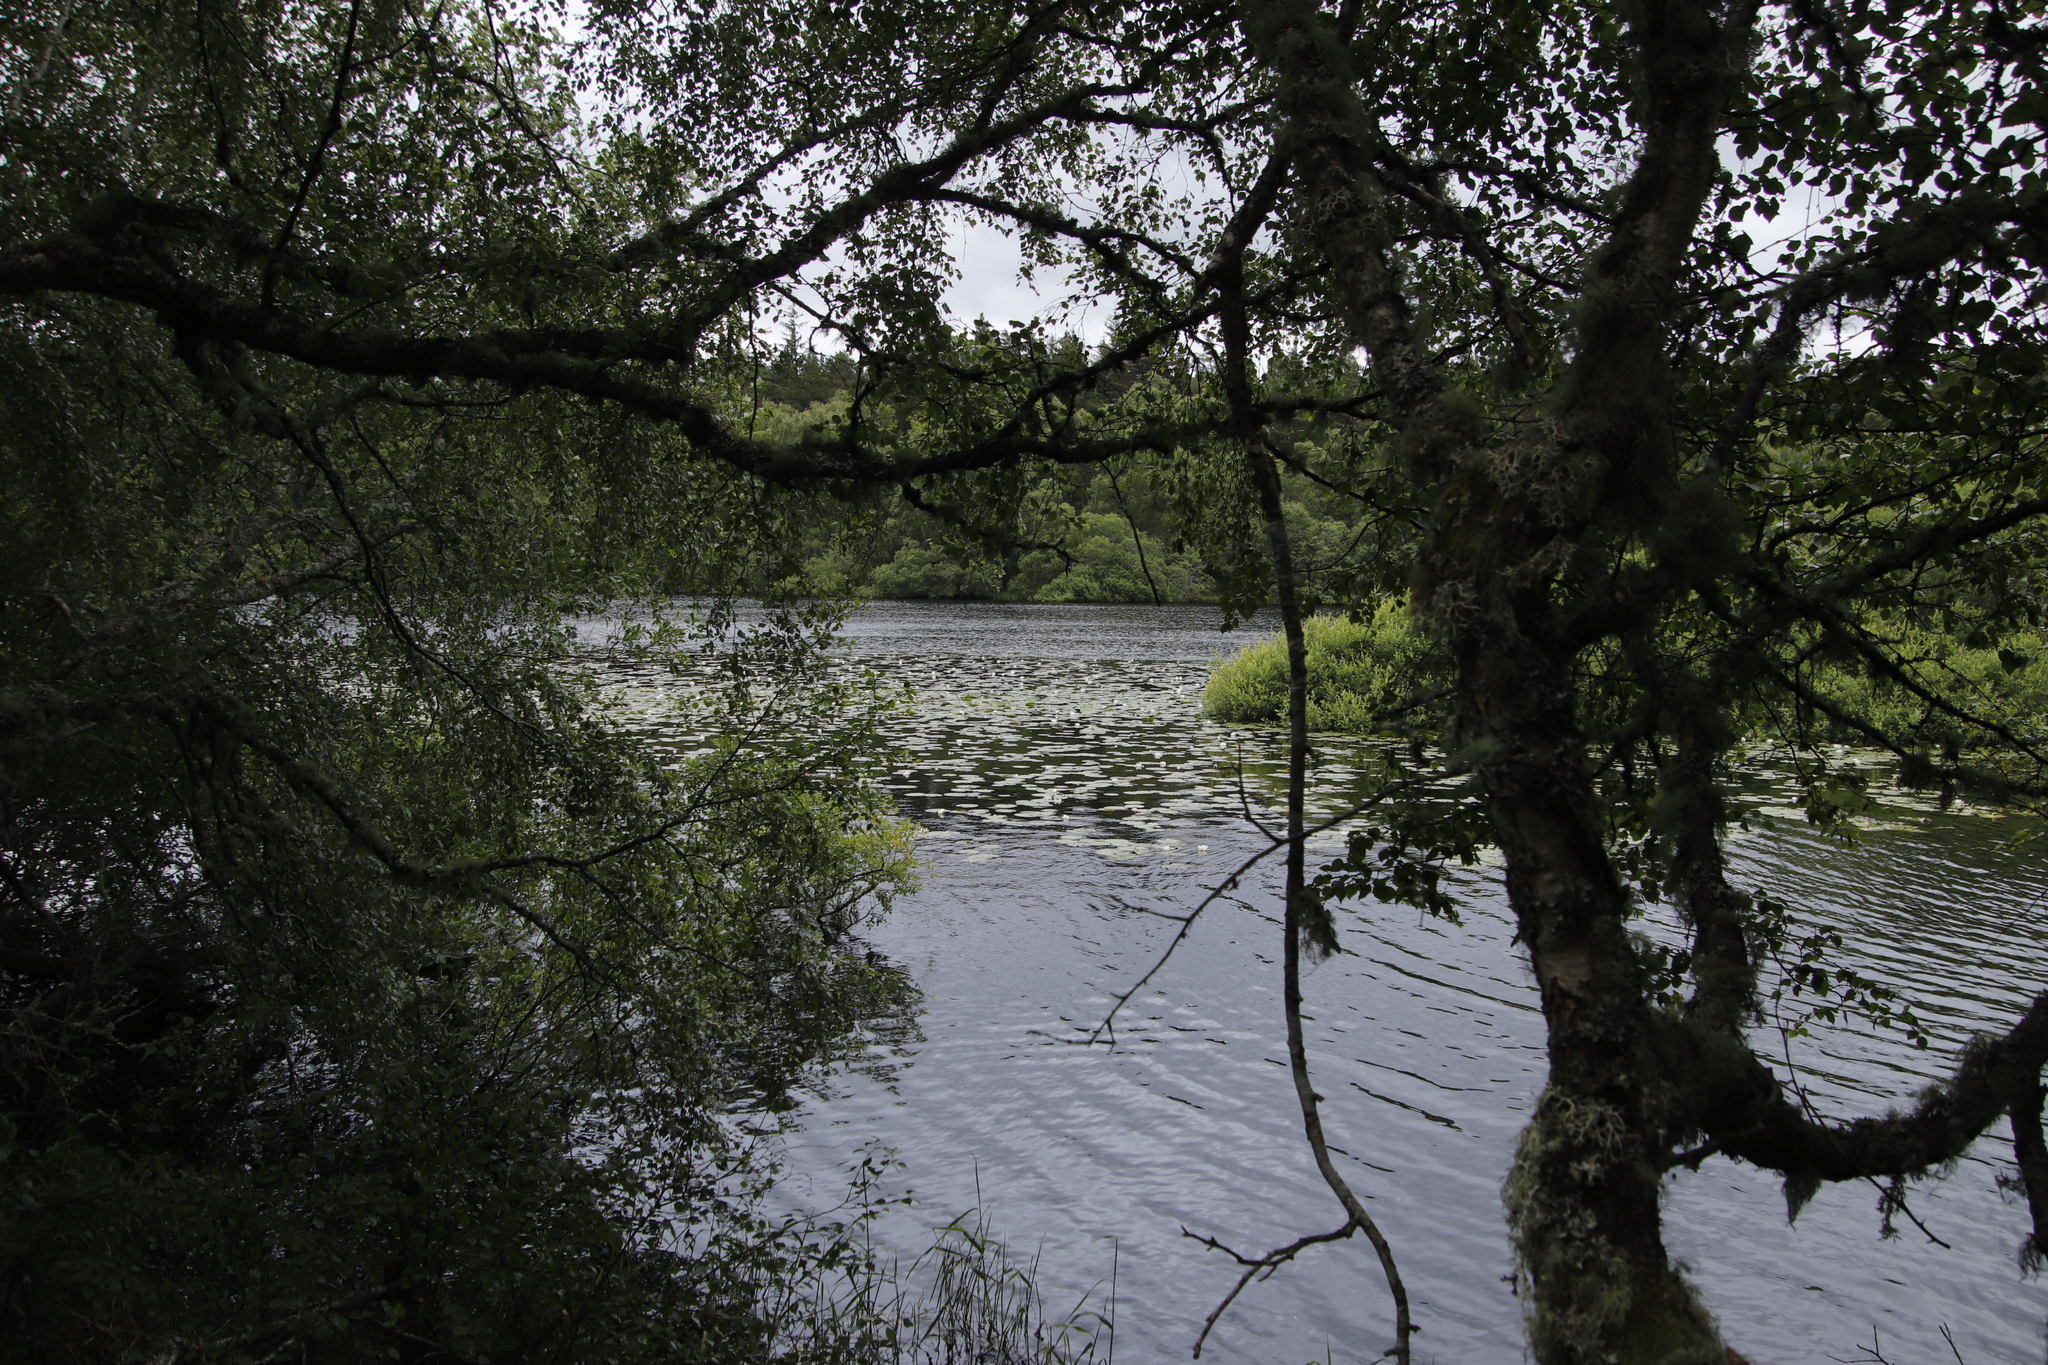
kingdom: Plantae
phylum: Tracheophyta
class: Magnoliopsida
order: Nymphaeales
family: Nymphaeaceae
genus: Nymphaea
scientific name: Nymphaea alba
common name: White water-lily
